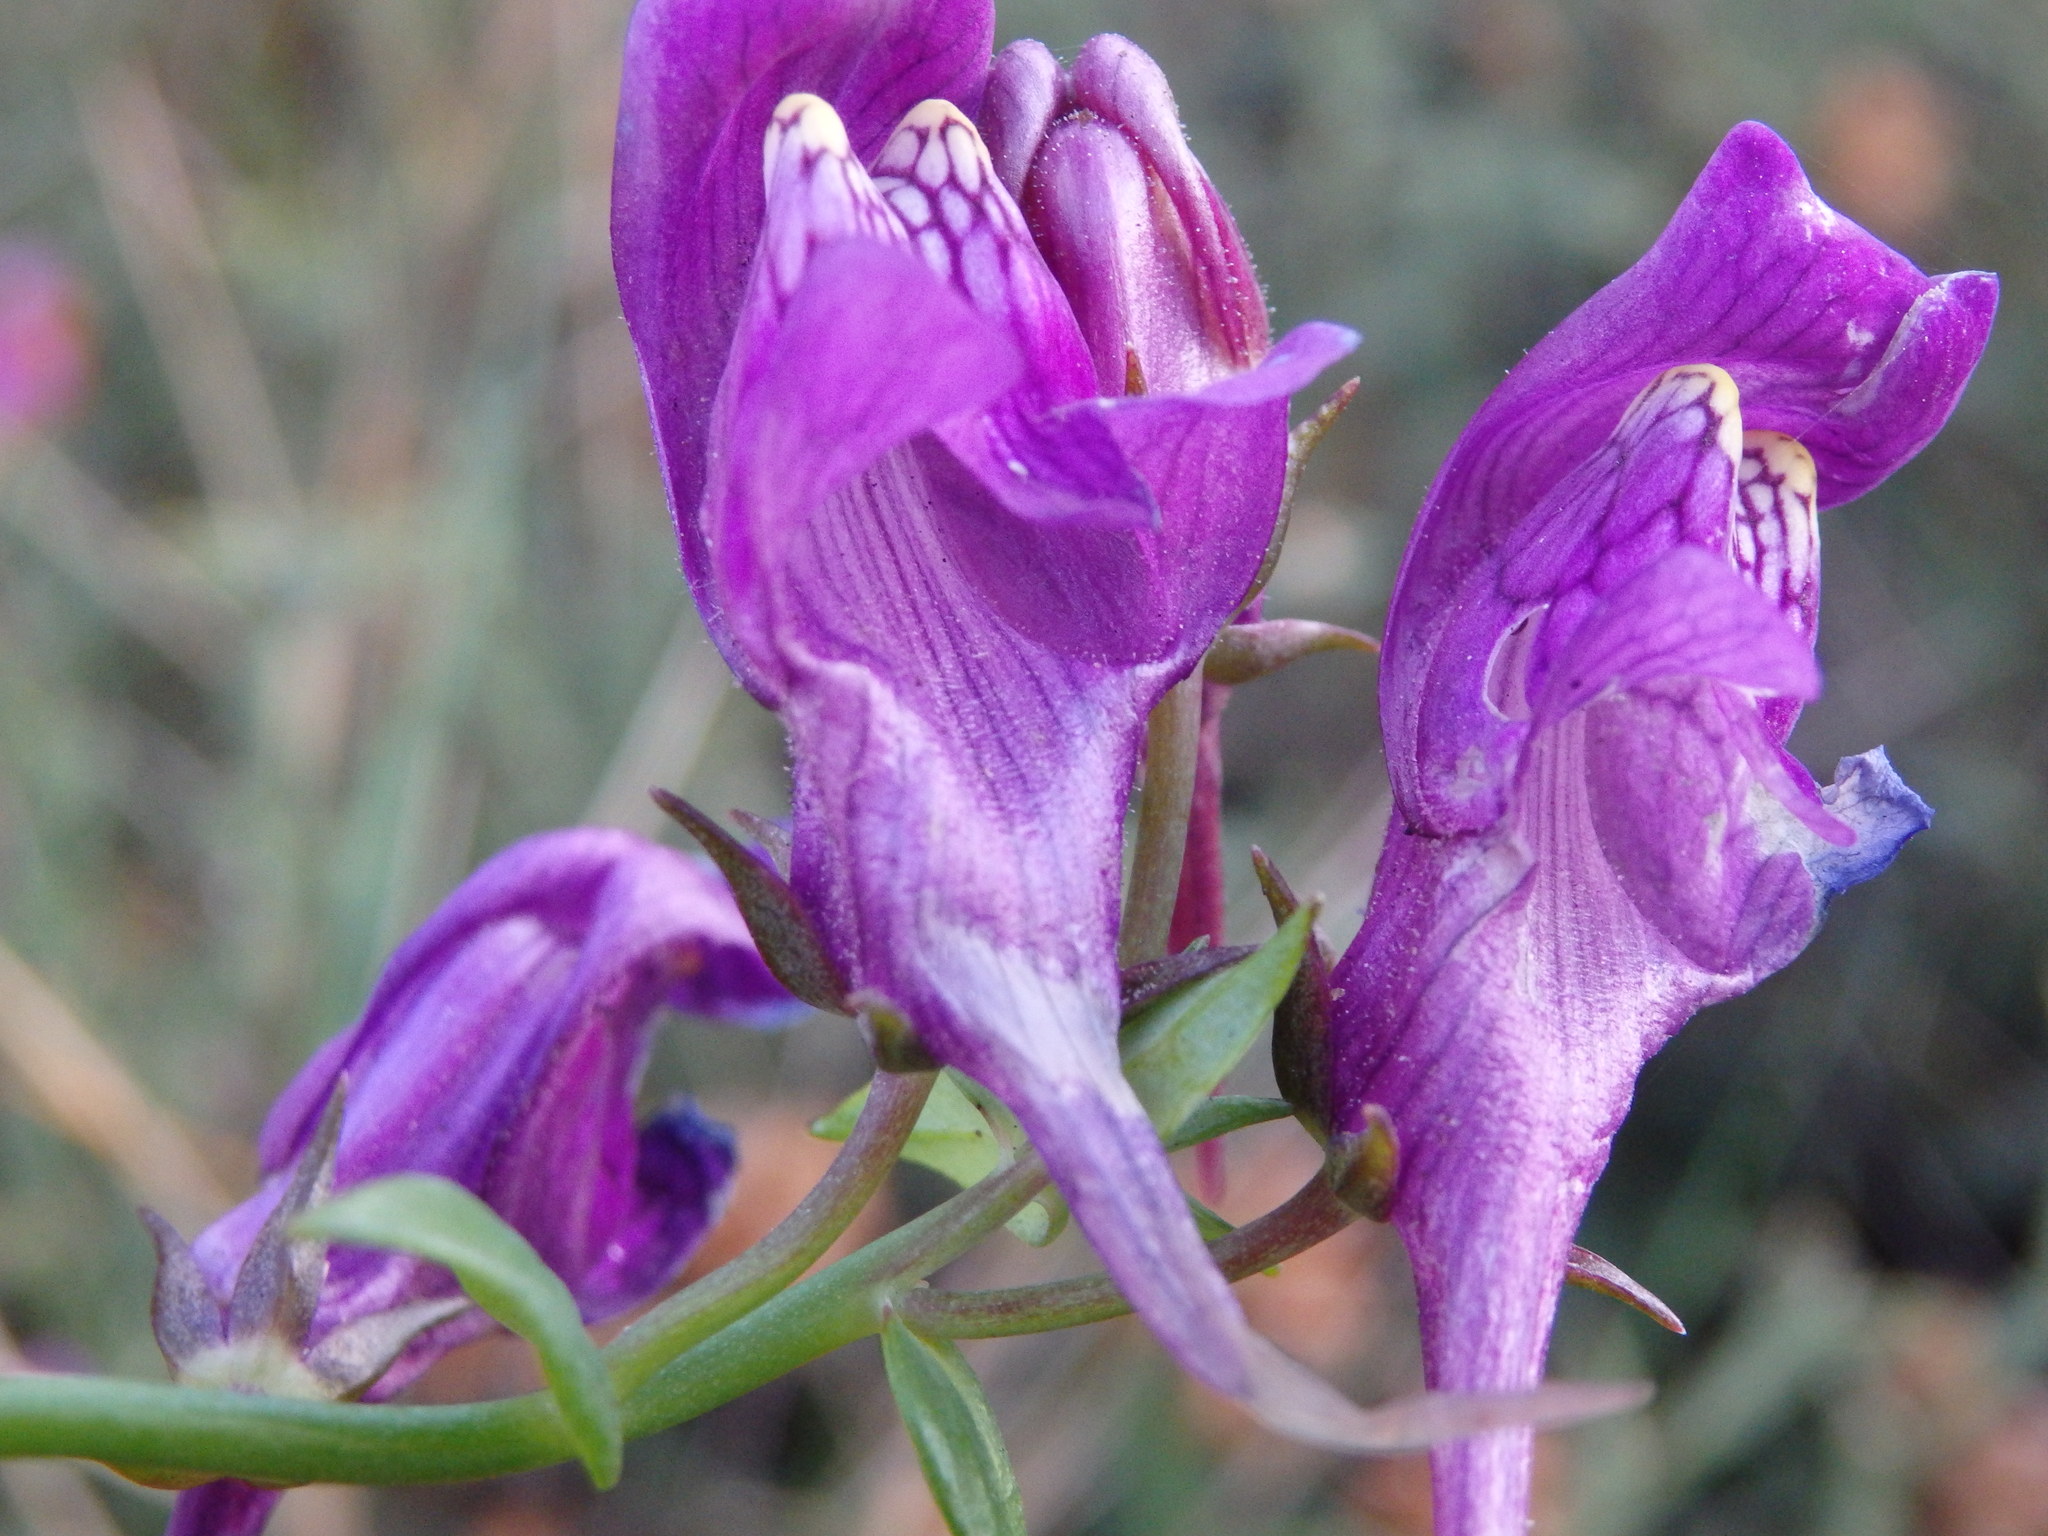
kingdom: Plantae
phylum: Tracheophyta
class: Magnoliopsida
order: Lamiales
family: Plantaginaceae
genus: Linaria
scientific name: Linaria triornithophora
